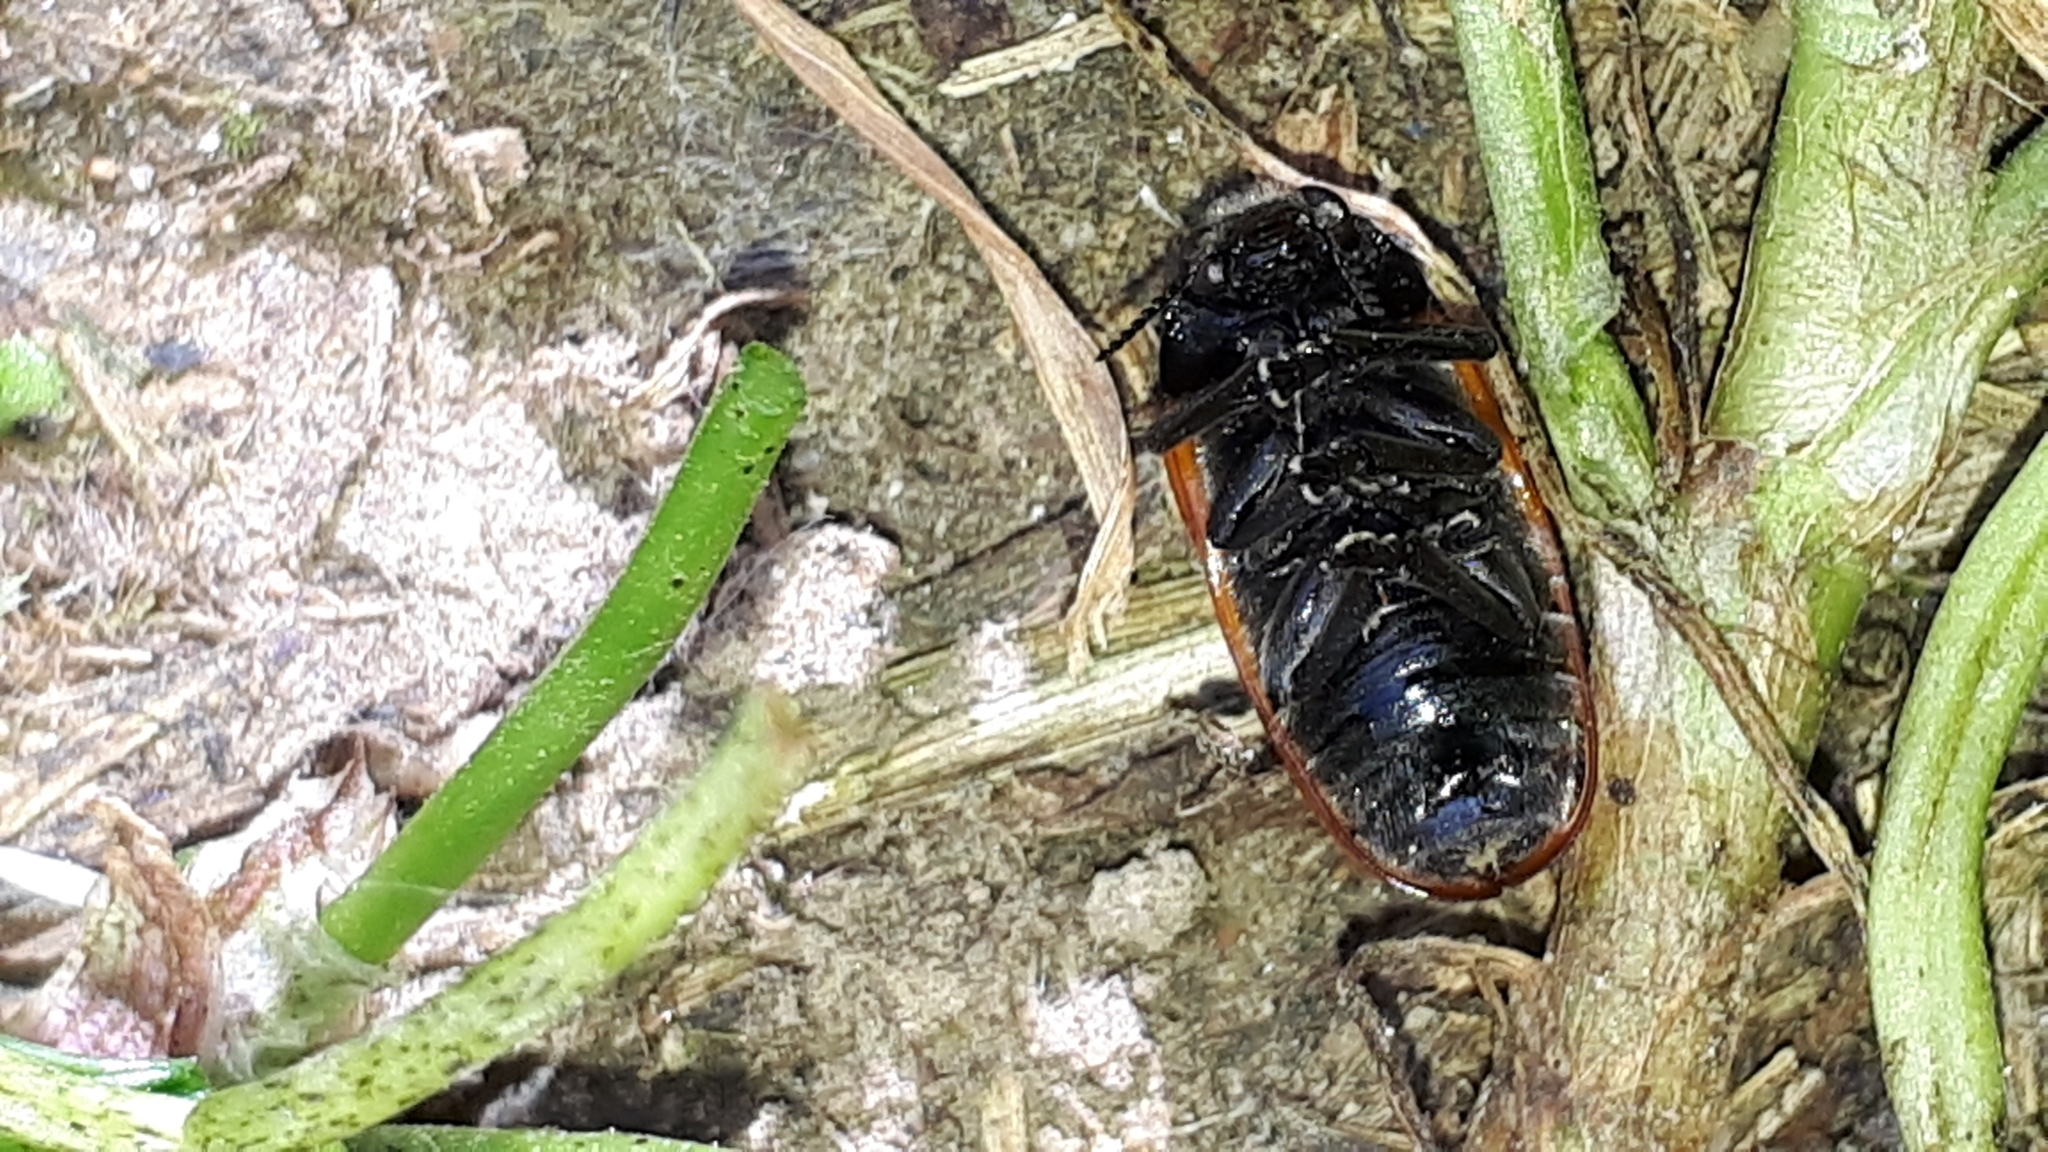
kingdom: Animalia
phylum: Arthropoda
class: Insecta
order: Coleoptera
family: Chrysomelidae
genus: Clytra
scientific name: Clytra laeviuscula
